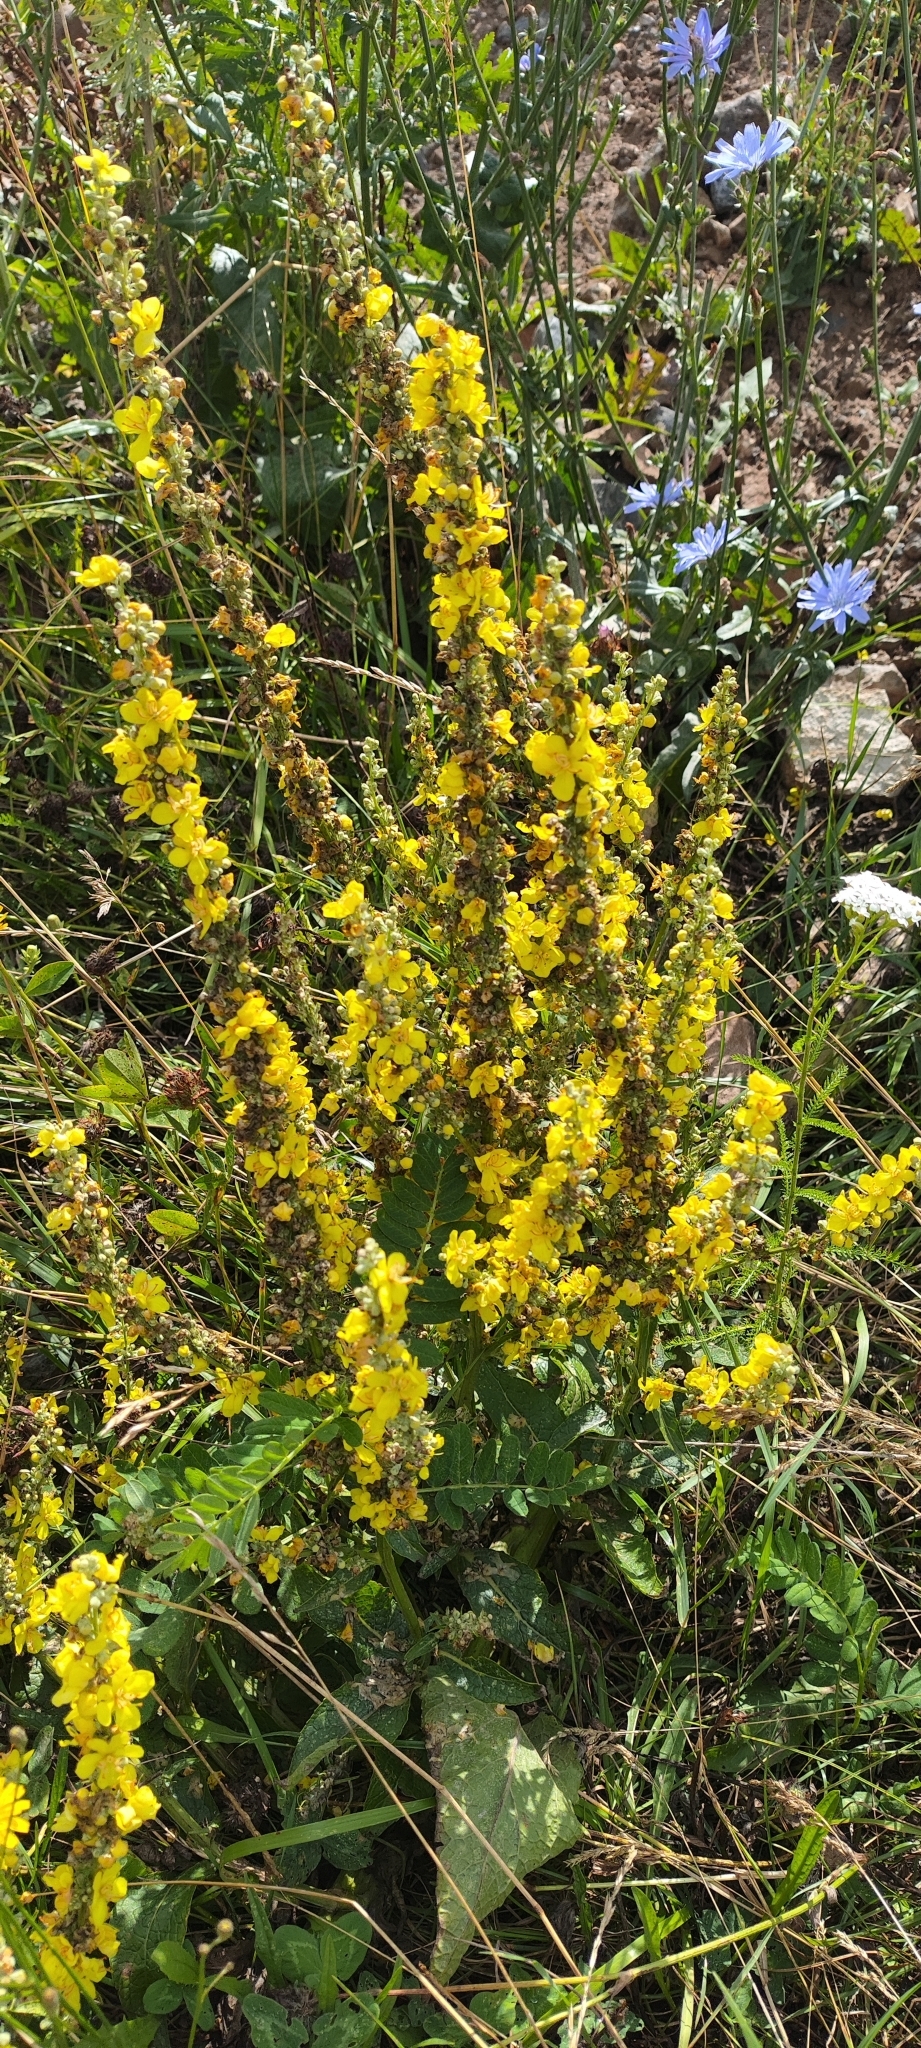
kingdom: Plantae
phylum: Tracheophyta
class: Magnoliopsida
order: Lamiales
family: Scrophulariaceae
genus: Verbascum
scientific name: Verbascum lychnitis
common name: White mullein
